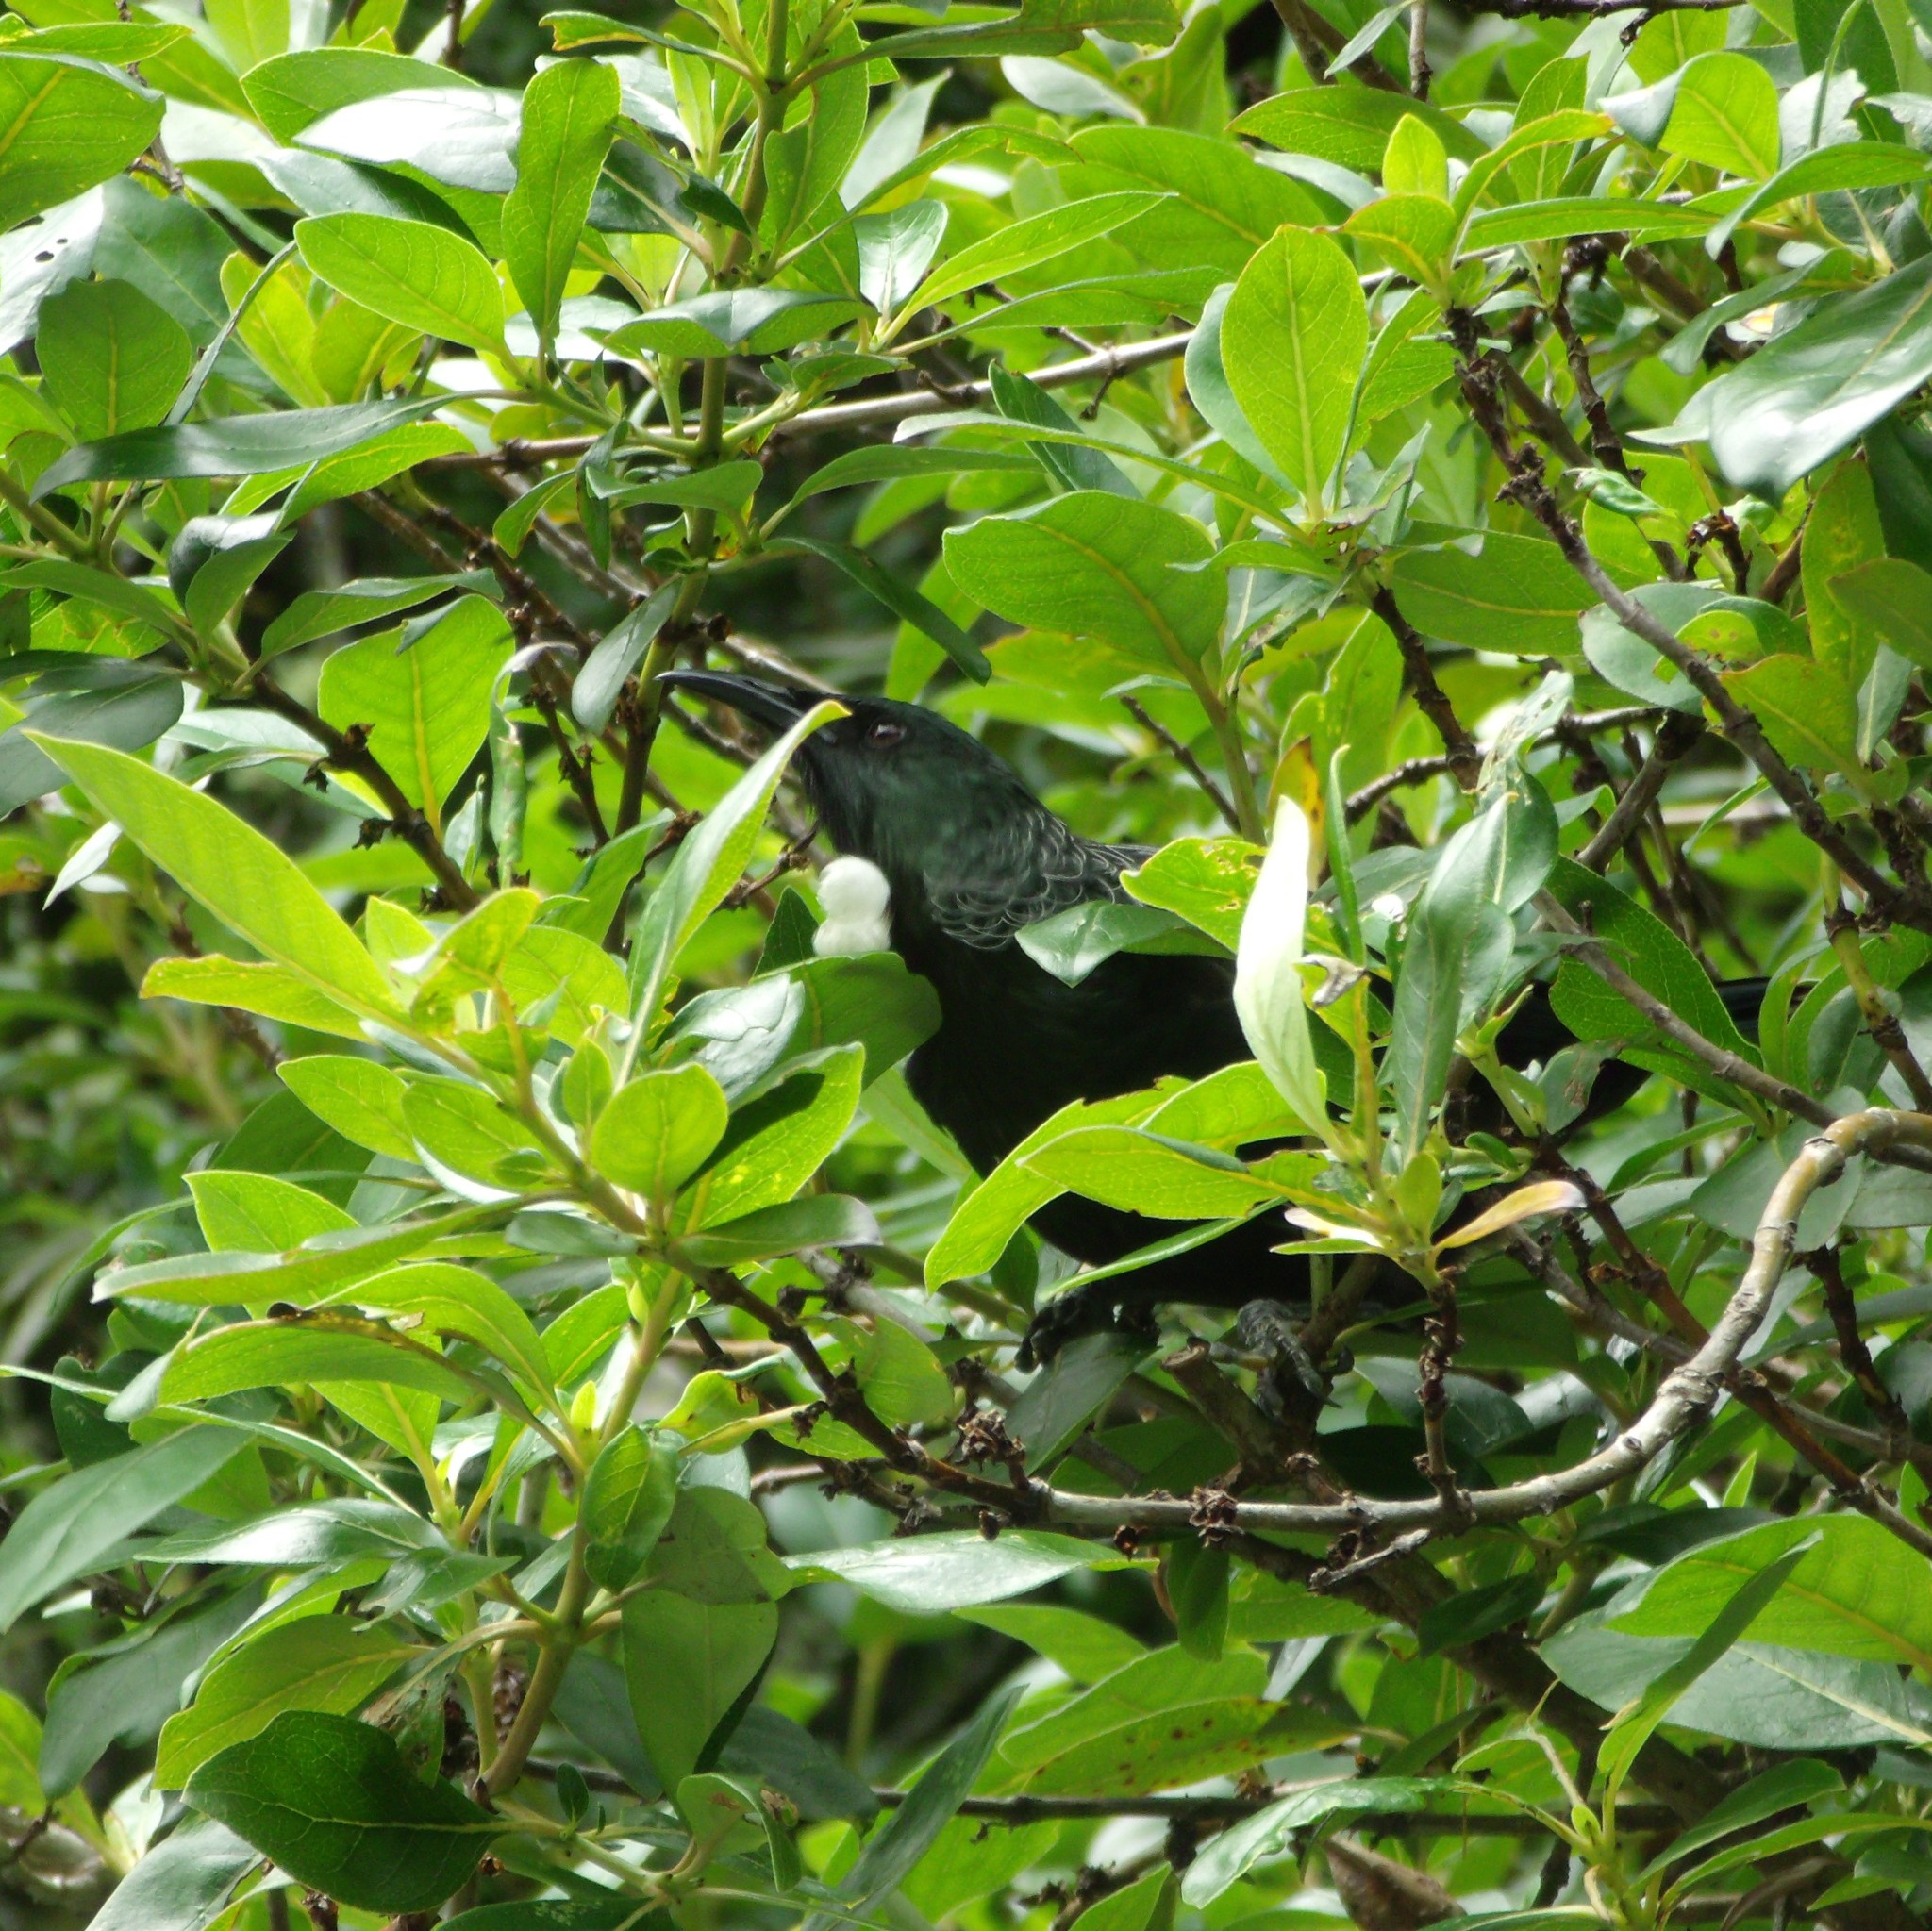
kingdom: Animalia
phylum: Chordata
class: Aves
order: Passeriformes
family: Meliphagidae
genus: Prosthemadera
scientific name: Prosthemadera novaeseelandiae
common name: Tui
